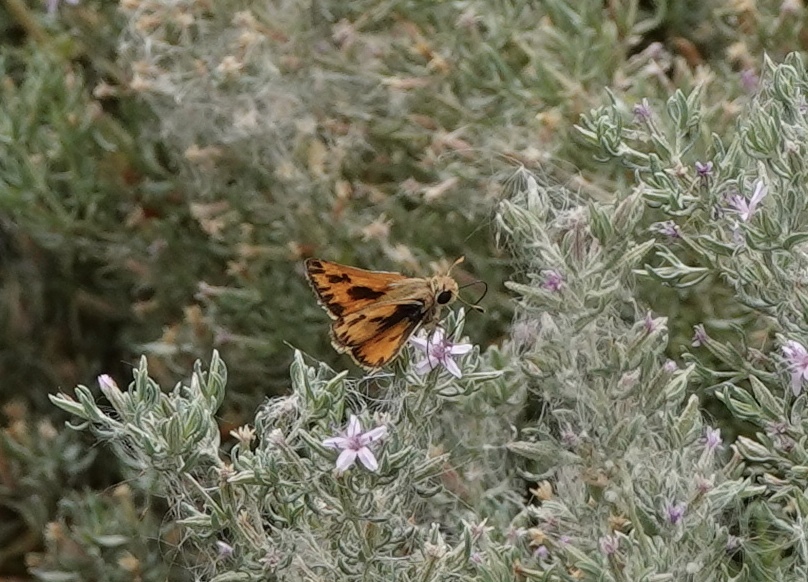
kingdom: Animalia
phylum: Arthropoda
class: Insecta
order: Lepidoptera
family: Hesperiidae
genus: Hylephila
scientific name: Hylephila fasciolata
